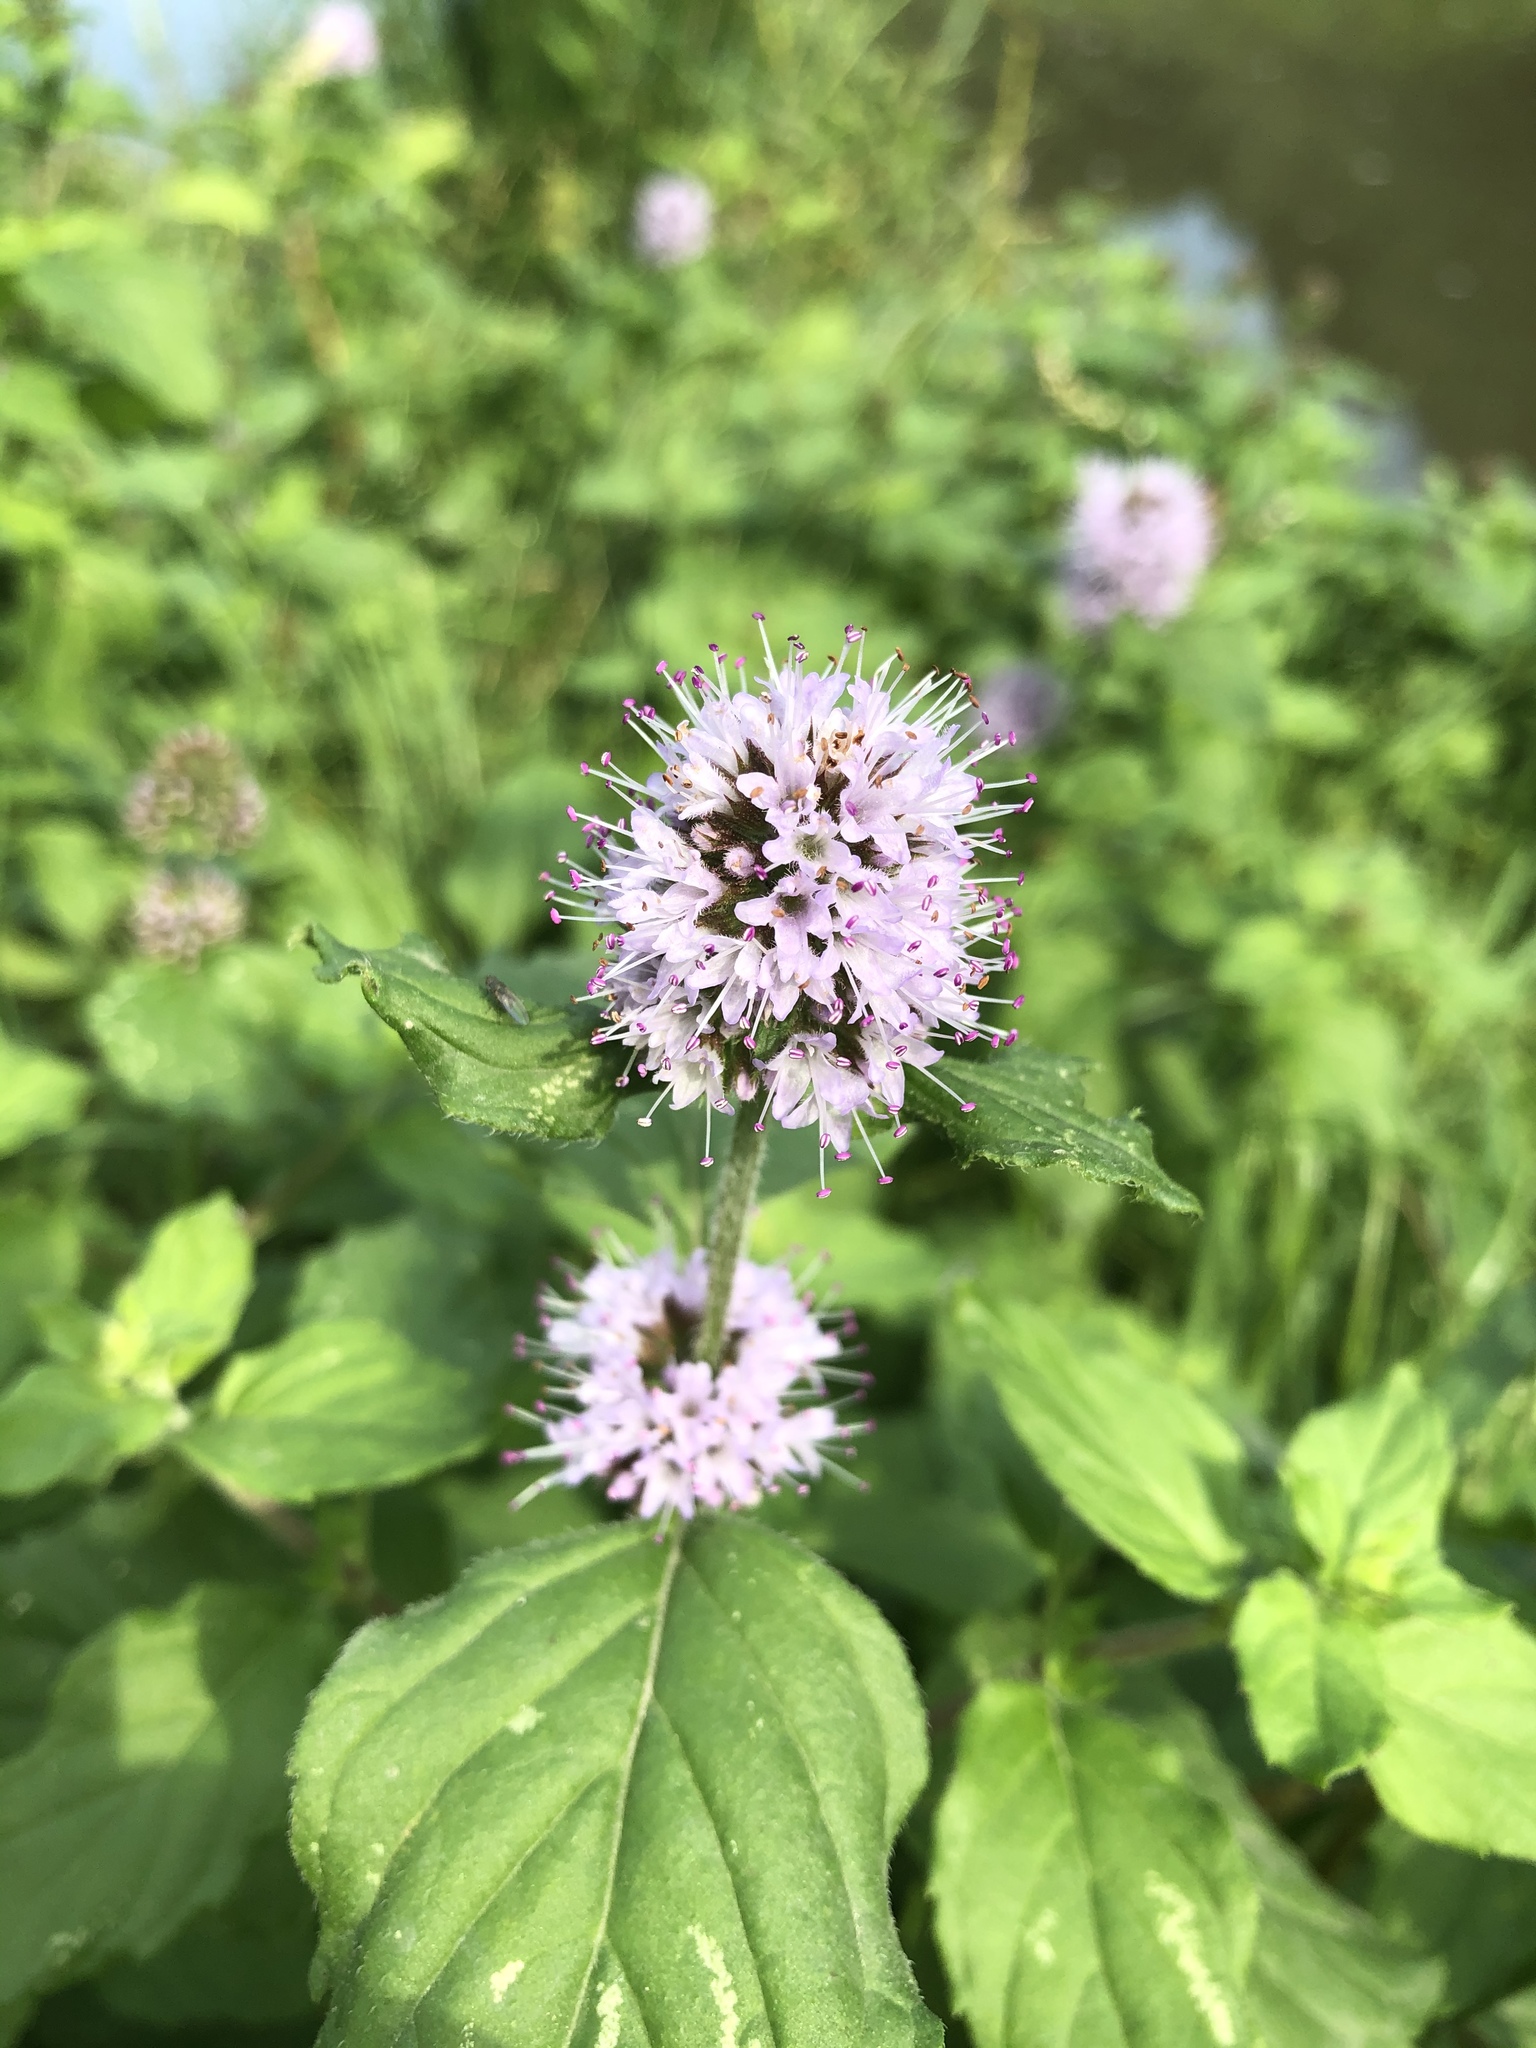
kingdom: Plantae
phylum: Tracheophyta
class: Magnoliopsida
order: Lamiales
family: Lamiaceae
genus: Mentha
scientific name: Mentha aquatica
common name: Water mint
